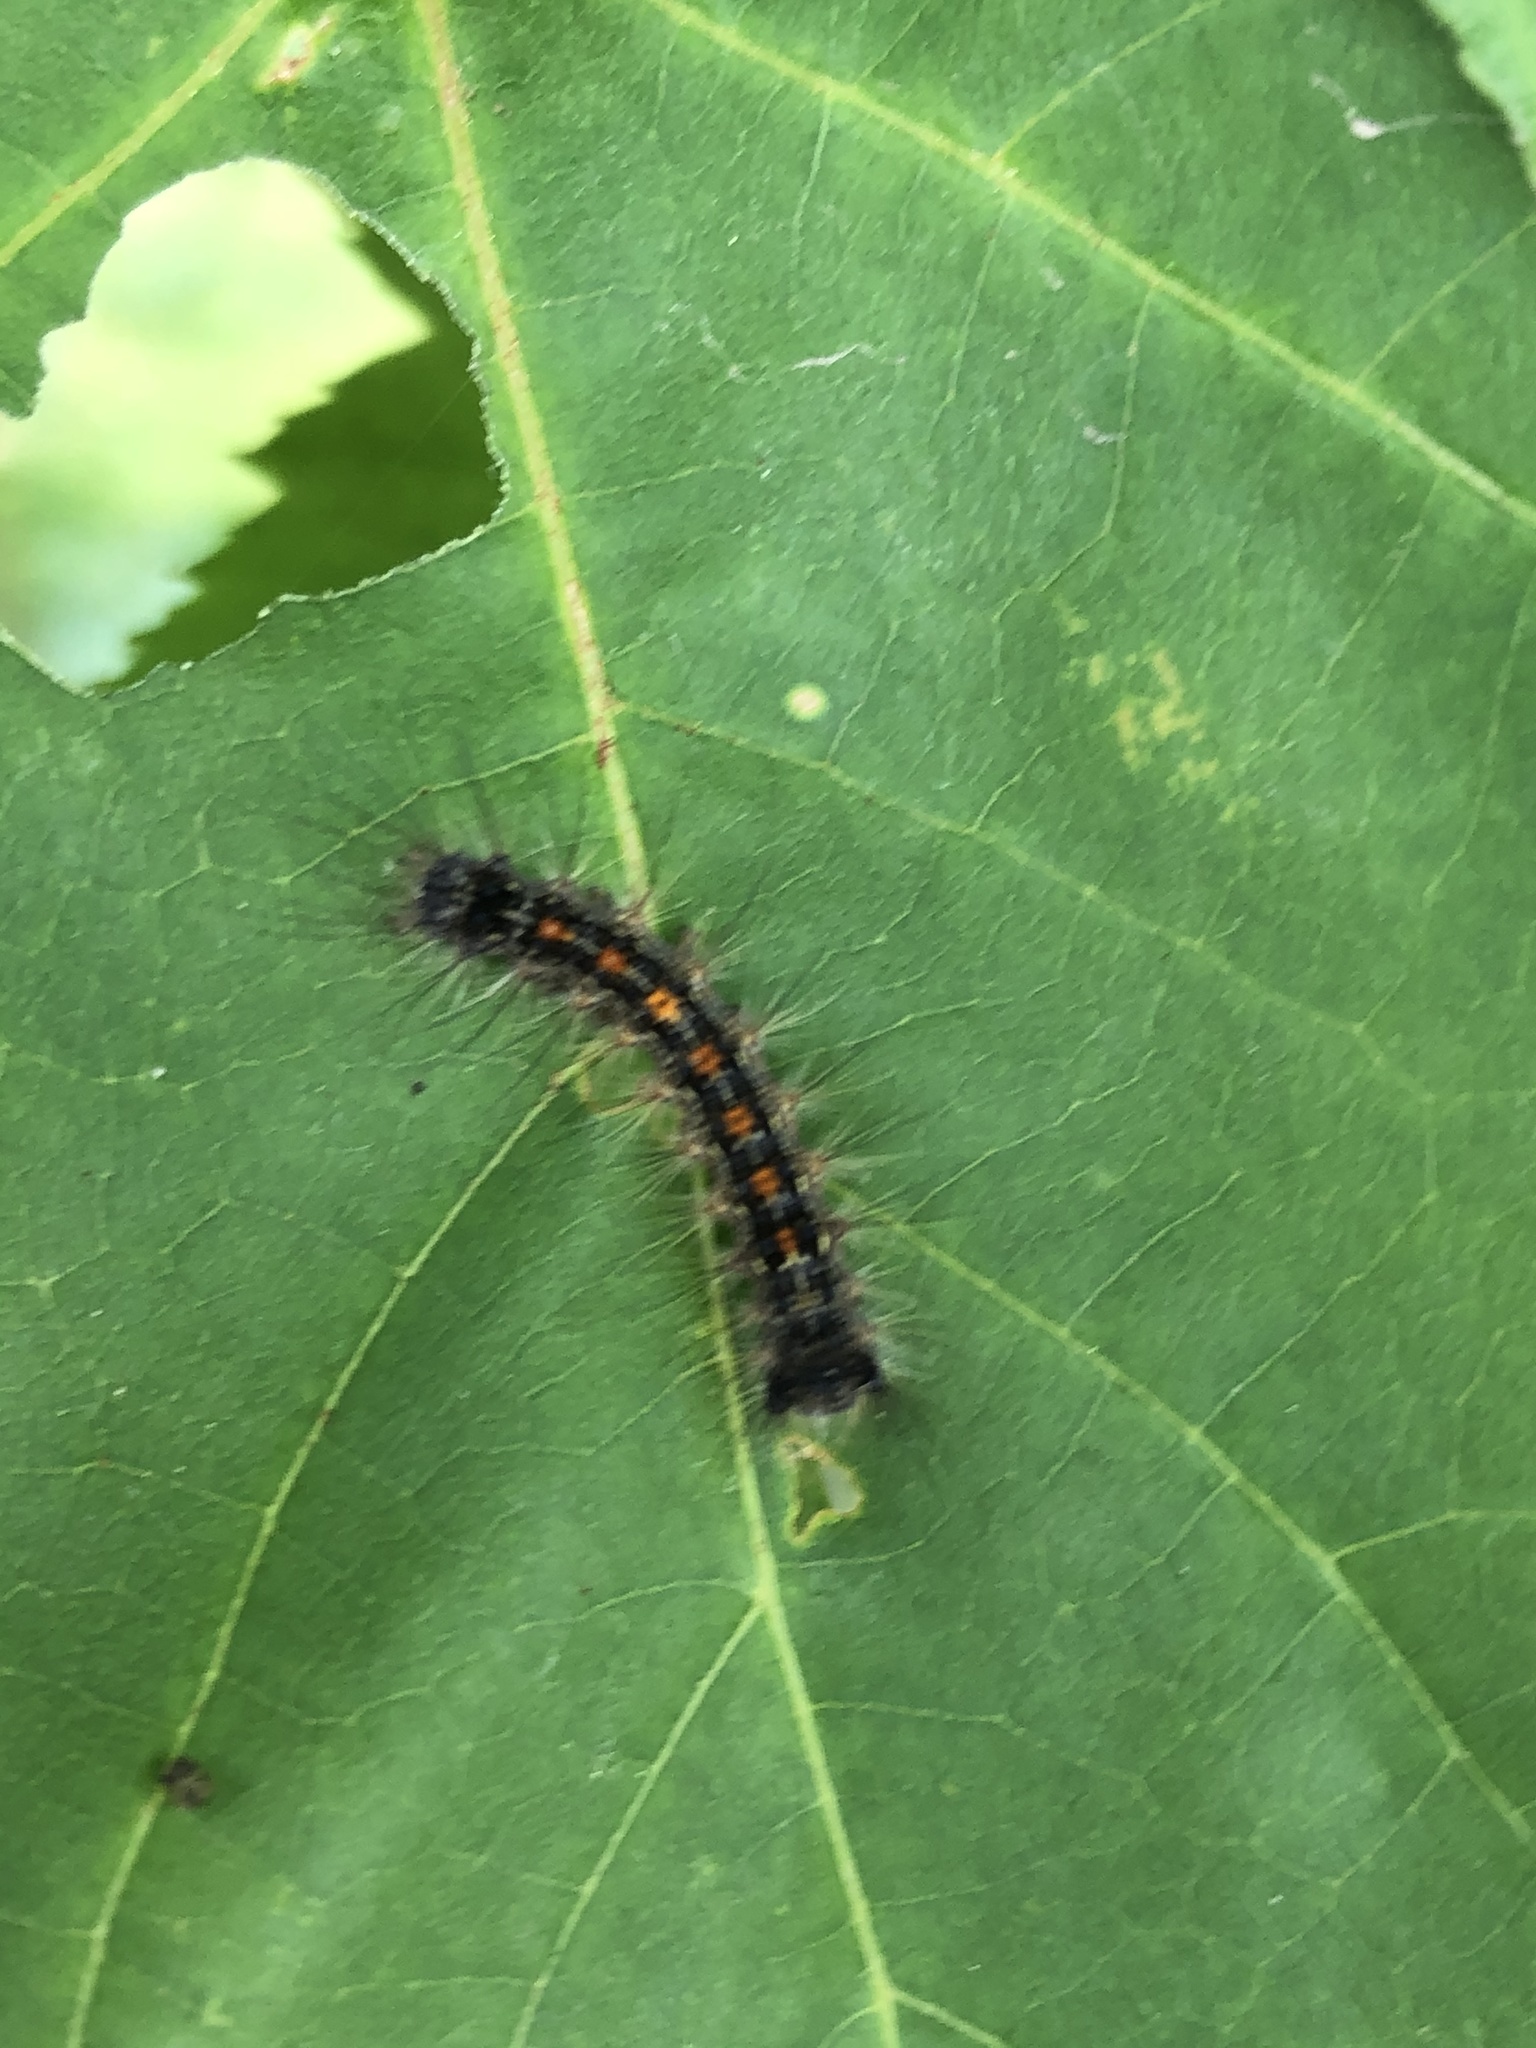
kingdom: Animalia
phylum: Arthropoda
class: Insecta
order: Lepidoptera
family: Erebidae
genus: Lymantria
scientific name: Lymantria dispar
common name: Gypsy moth
